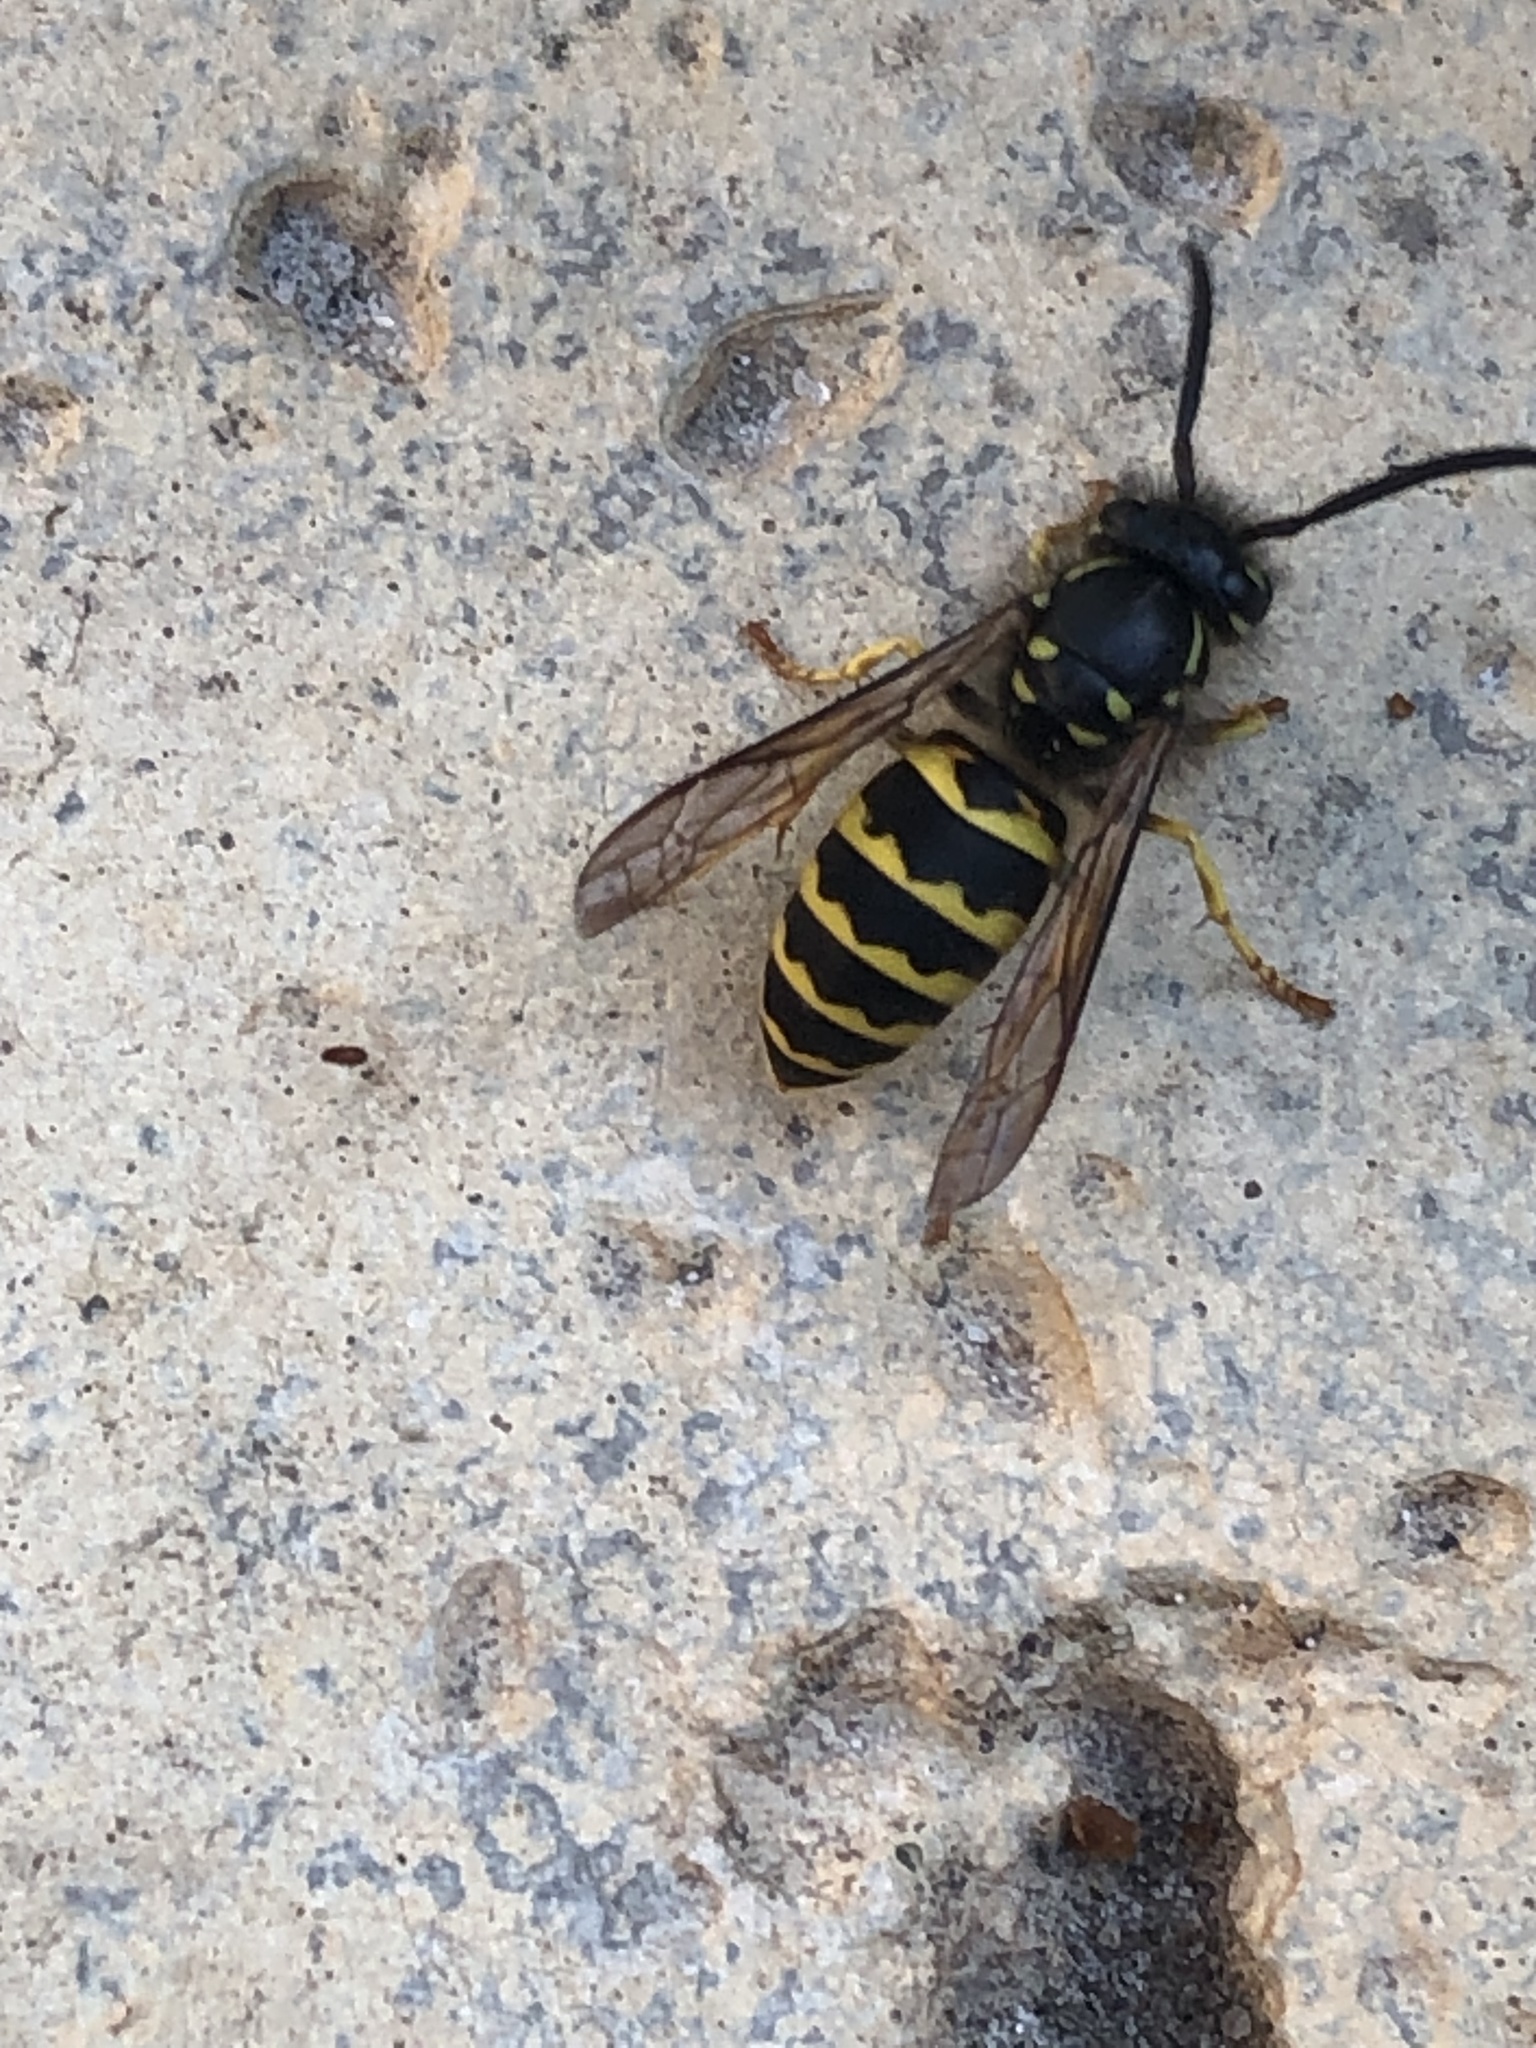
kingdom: Animalia
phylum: Arthropoda
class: Insecta
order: Hymenoptera
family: Vespidae
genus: Vespula
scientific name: Vespula alascensis
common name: Alaska yellowjacket
